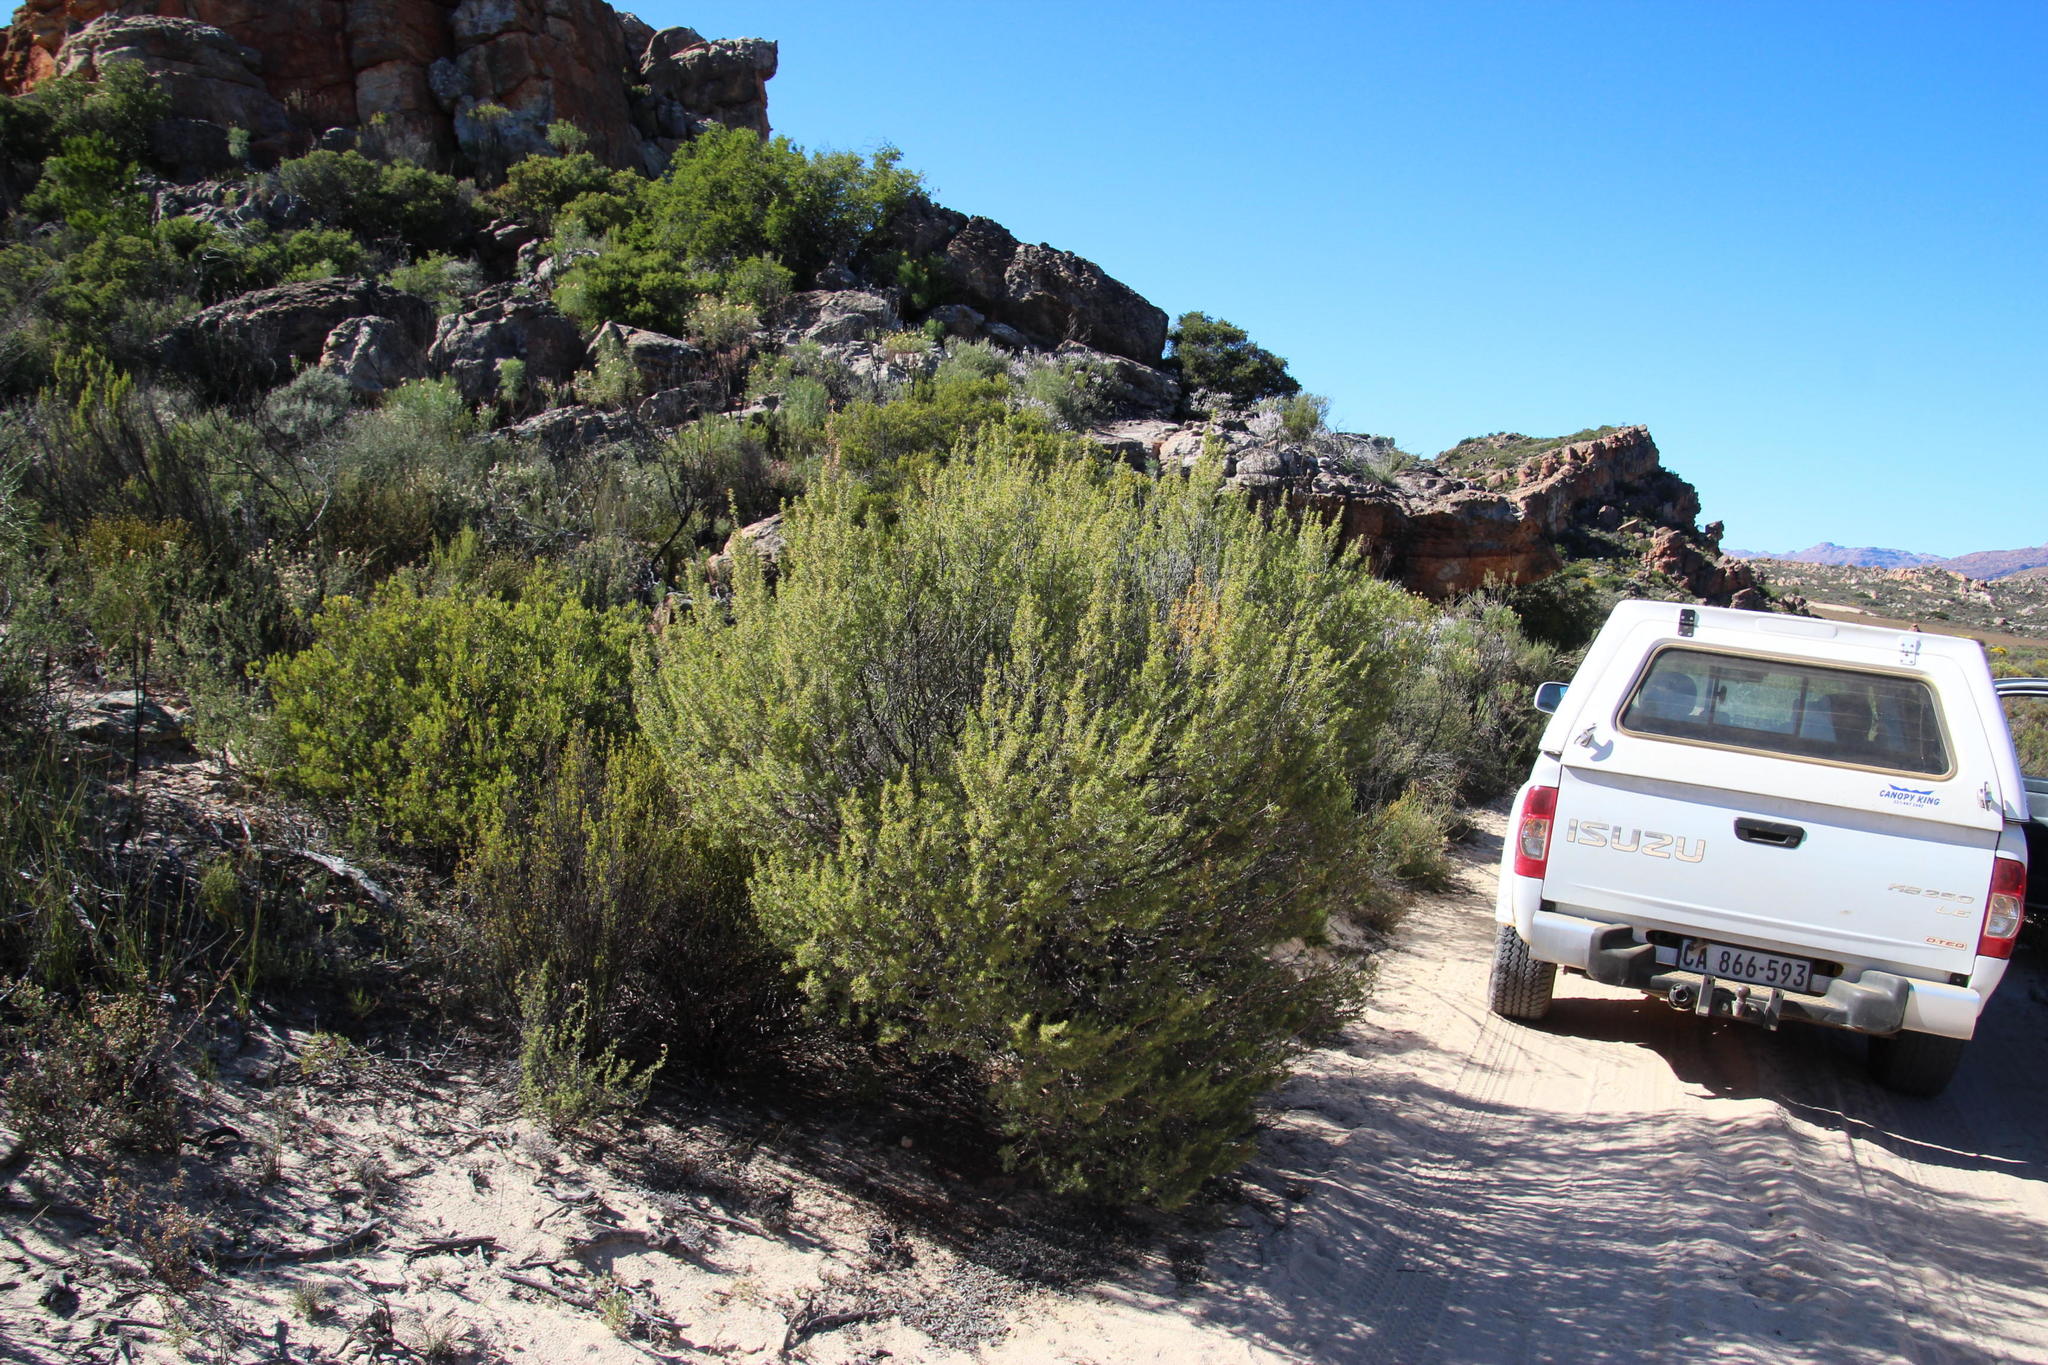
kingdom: Plantae
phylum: Tracheophyta
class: Magnoliopsida
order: Fabales
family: Fabaceae
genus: Aspalathus
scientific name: Aspalathus hirta
